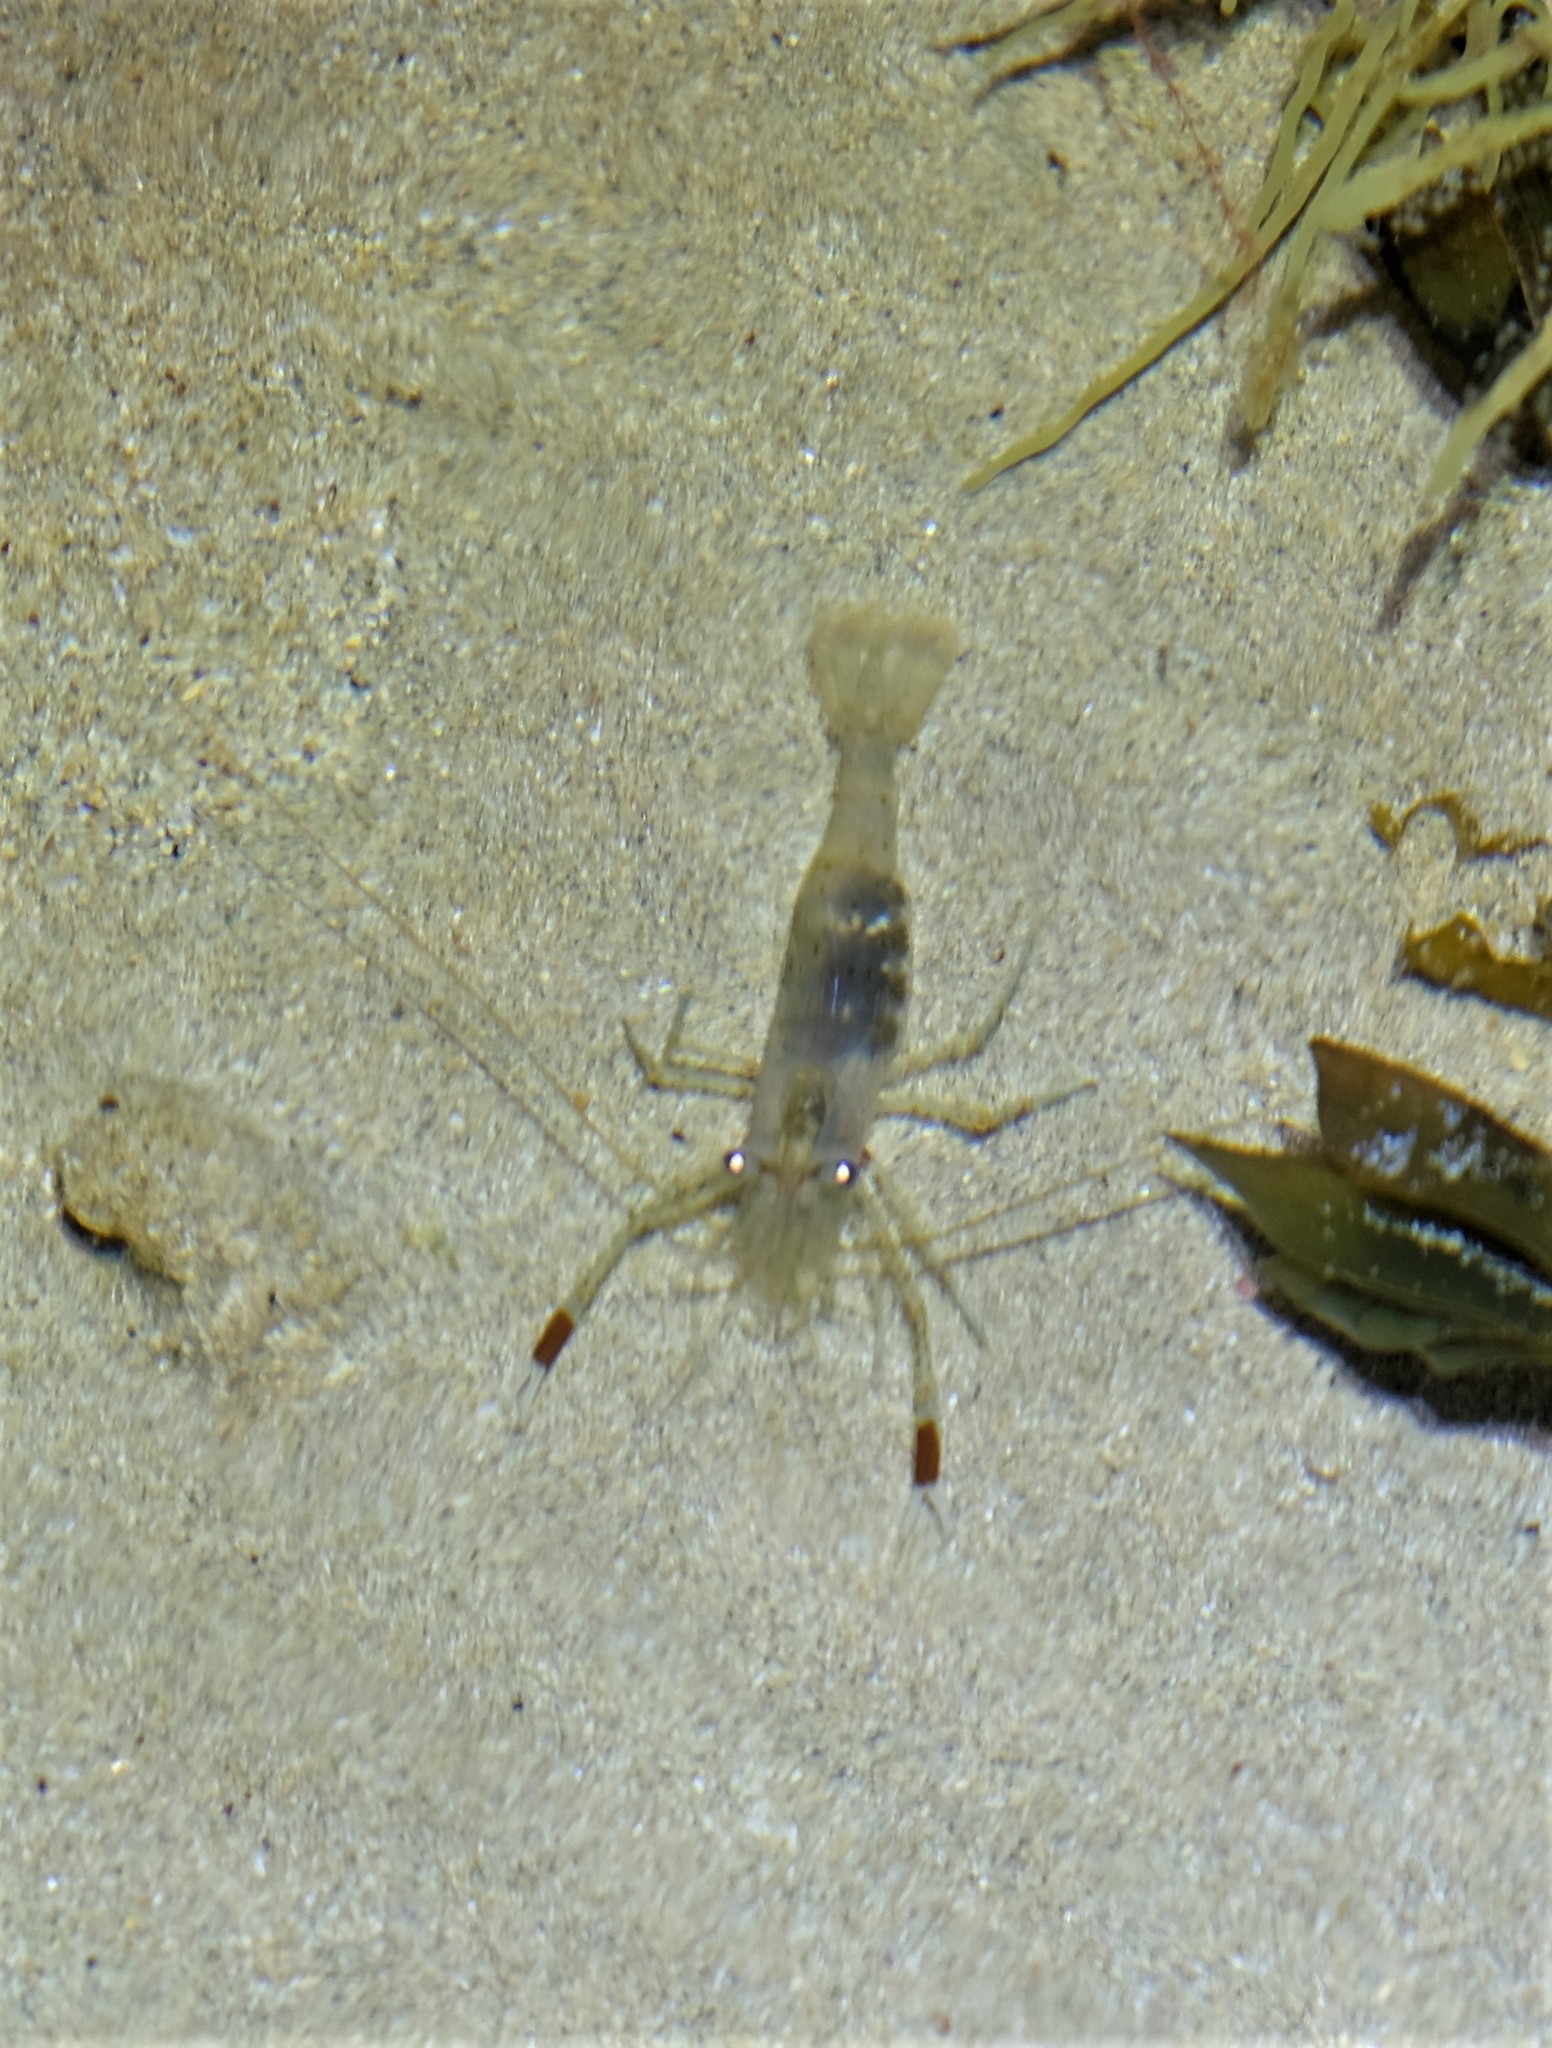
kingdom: Animalia
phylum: Arthropoda
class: Malacostraca
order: Decapoda
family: Palaemonidae
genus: Palaemon
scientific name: Palaemon serenus
